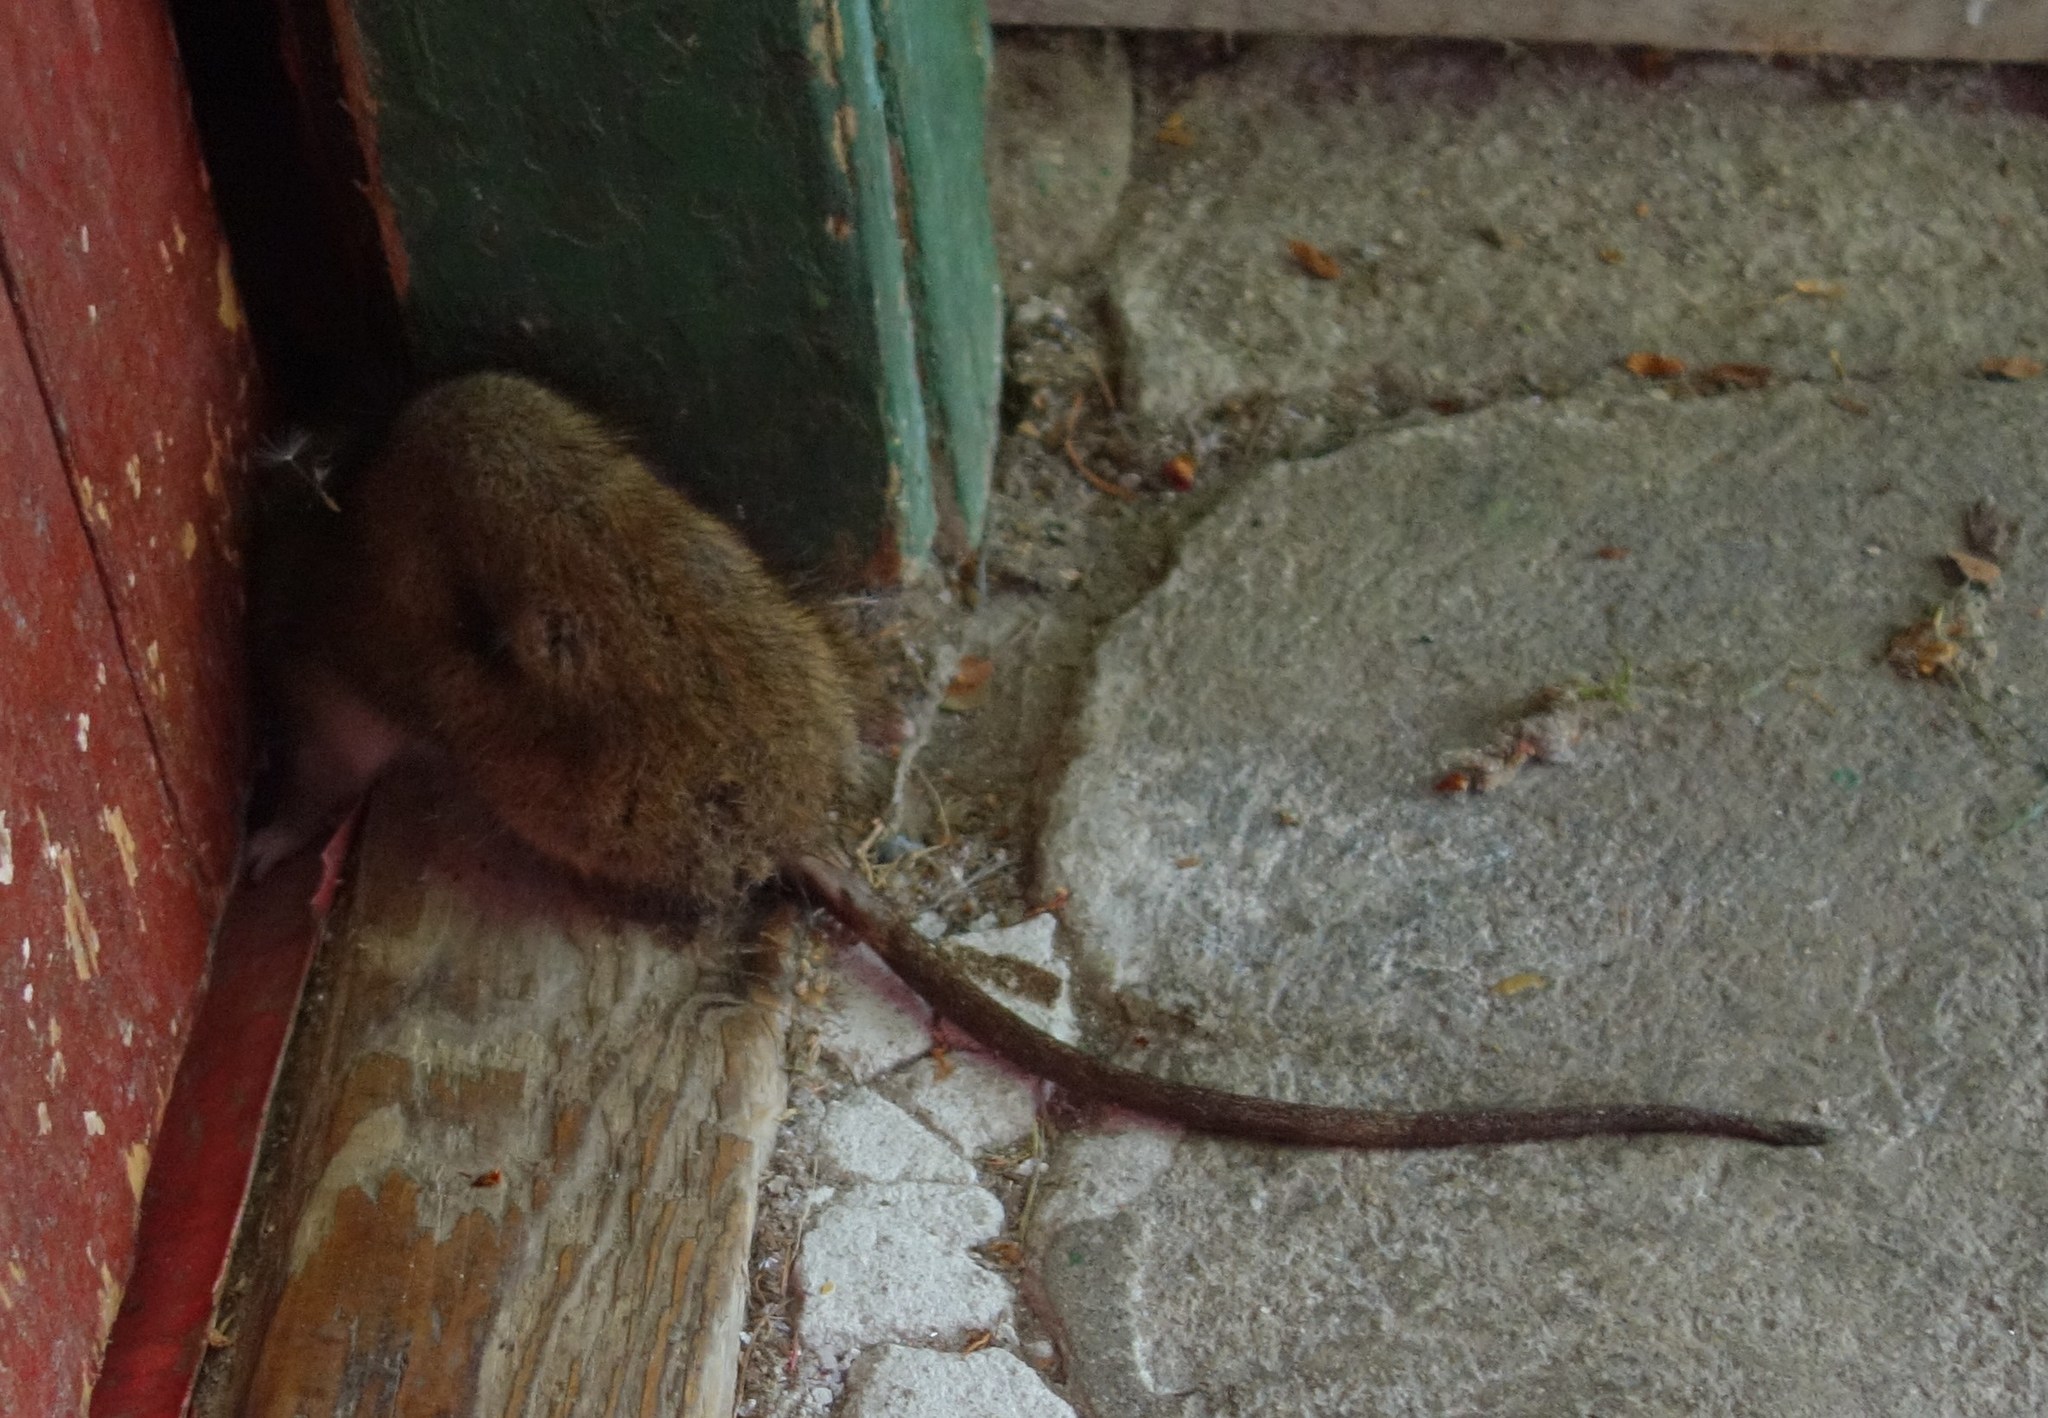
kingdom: Animalia
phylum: Chordata
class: Mammalia
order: Rodentia
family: Muridae
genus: Rattus
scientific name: Rattus norvegicus
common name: Brown rat
